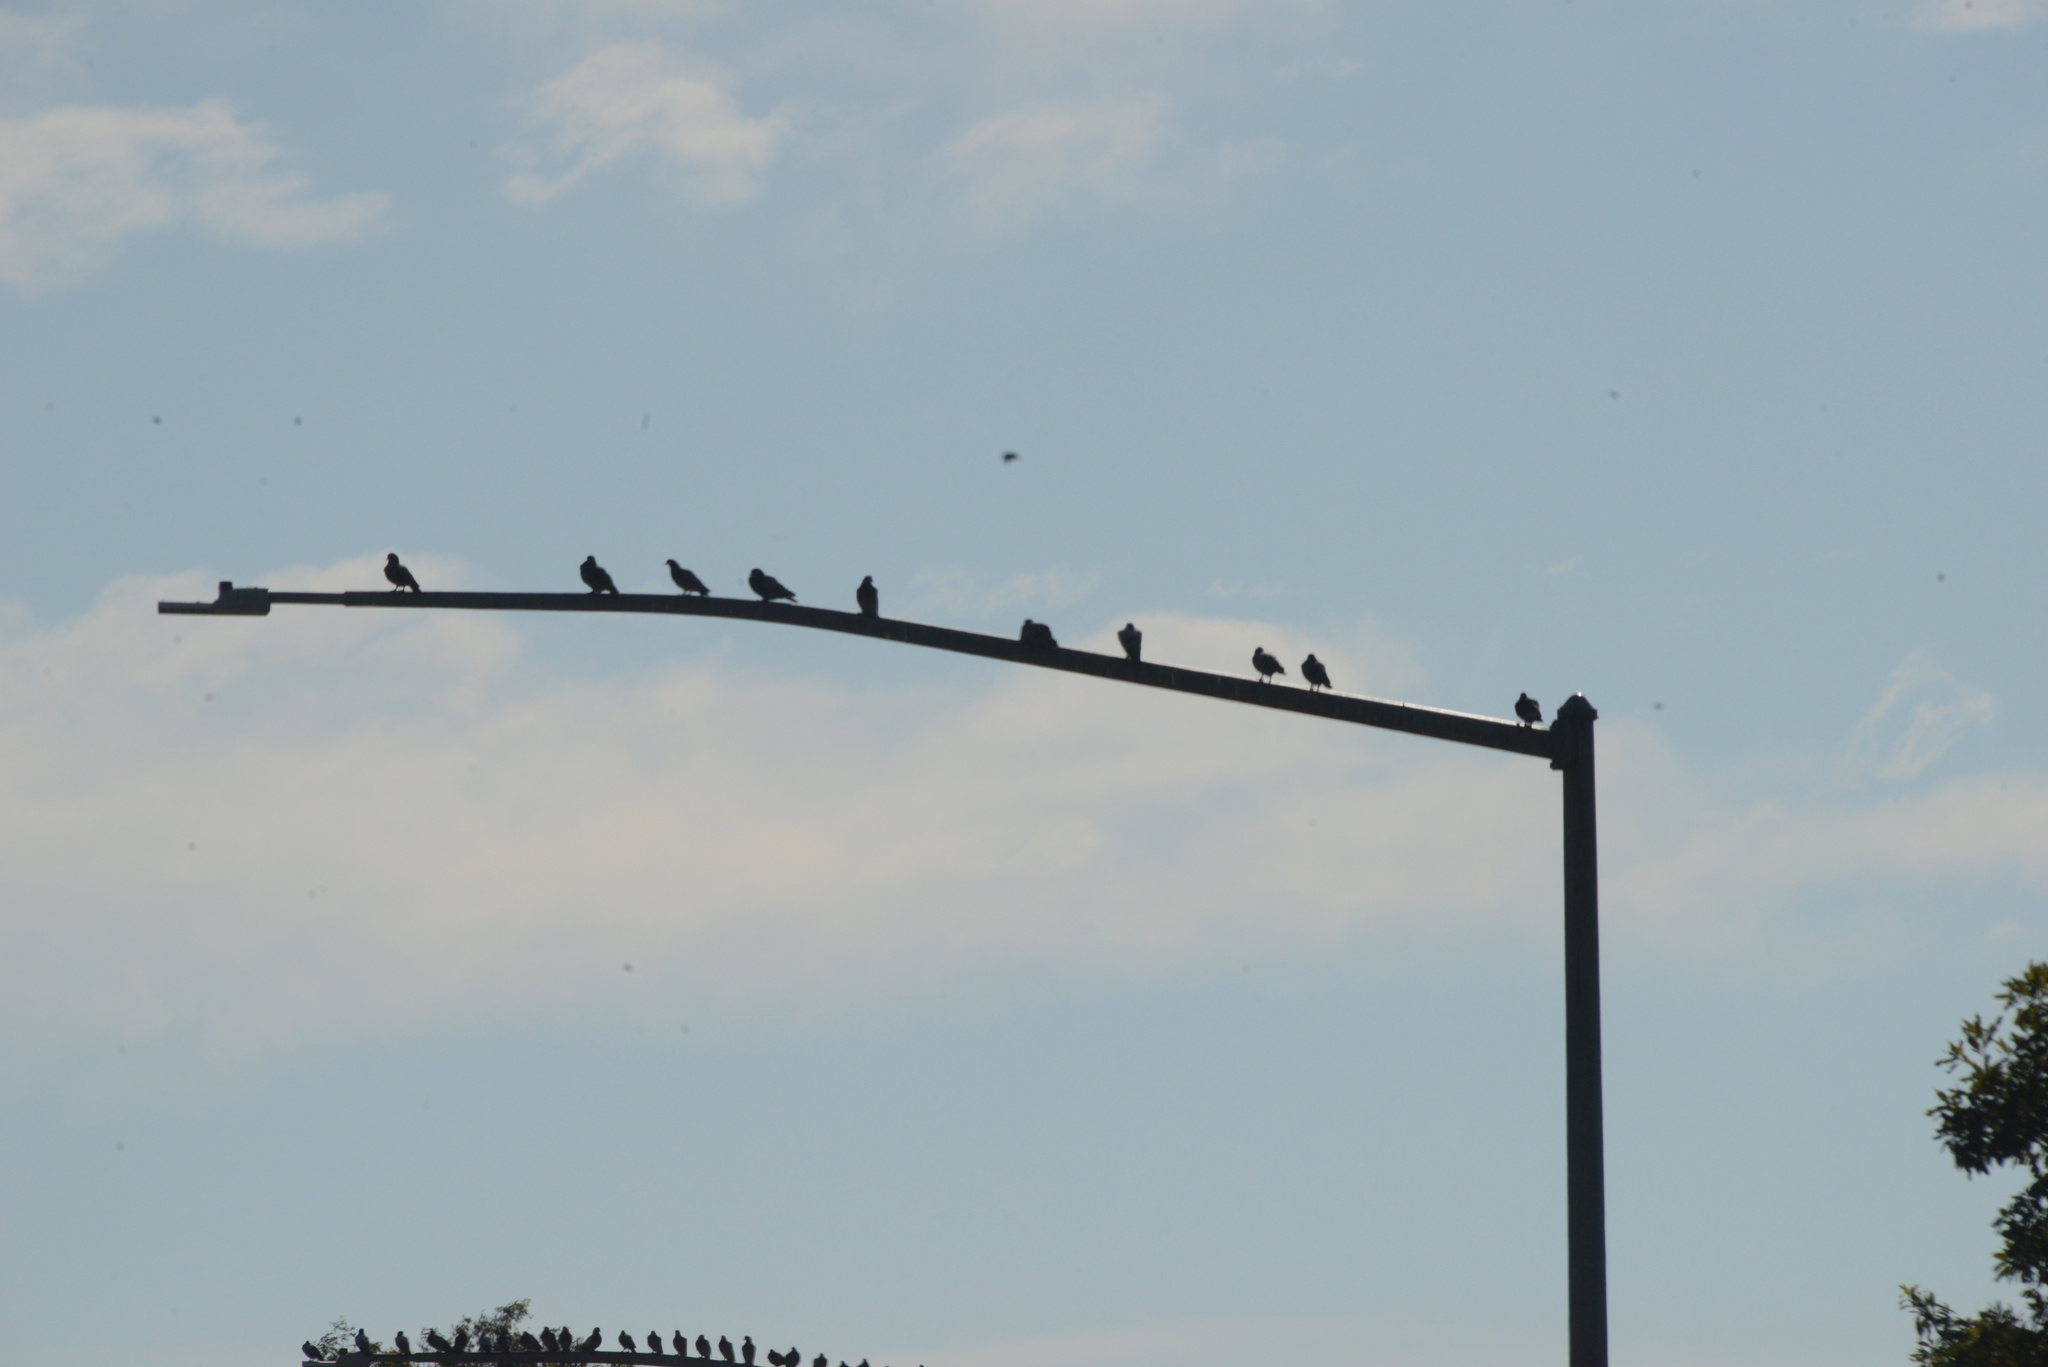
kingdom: Animalia
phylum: Chordata
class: Aves
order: Columbiformes
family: Columbidae
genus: Columba
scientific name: Columba livia
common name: Rock pigeon
